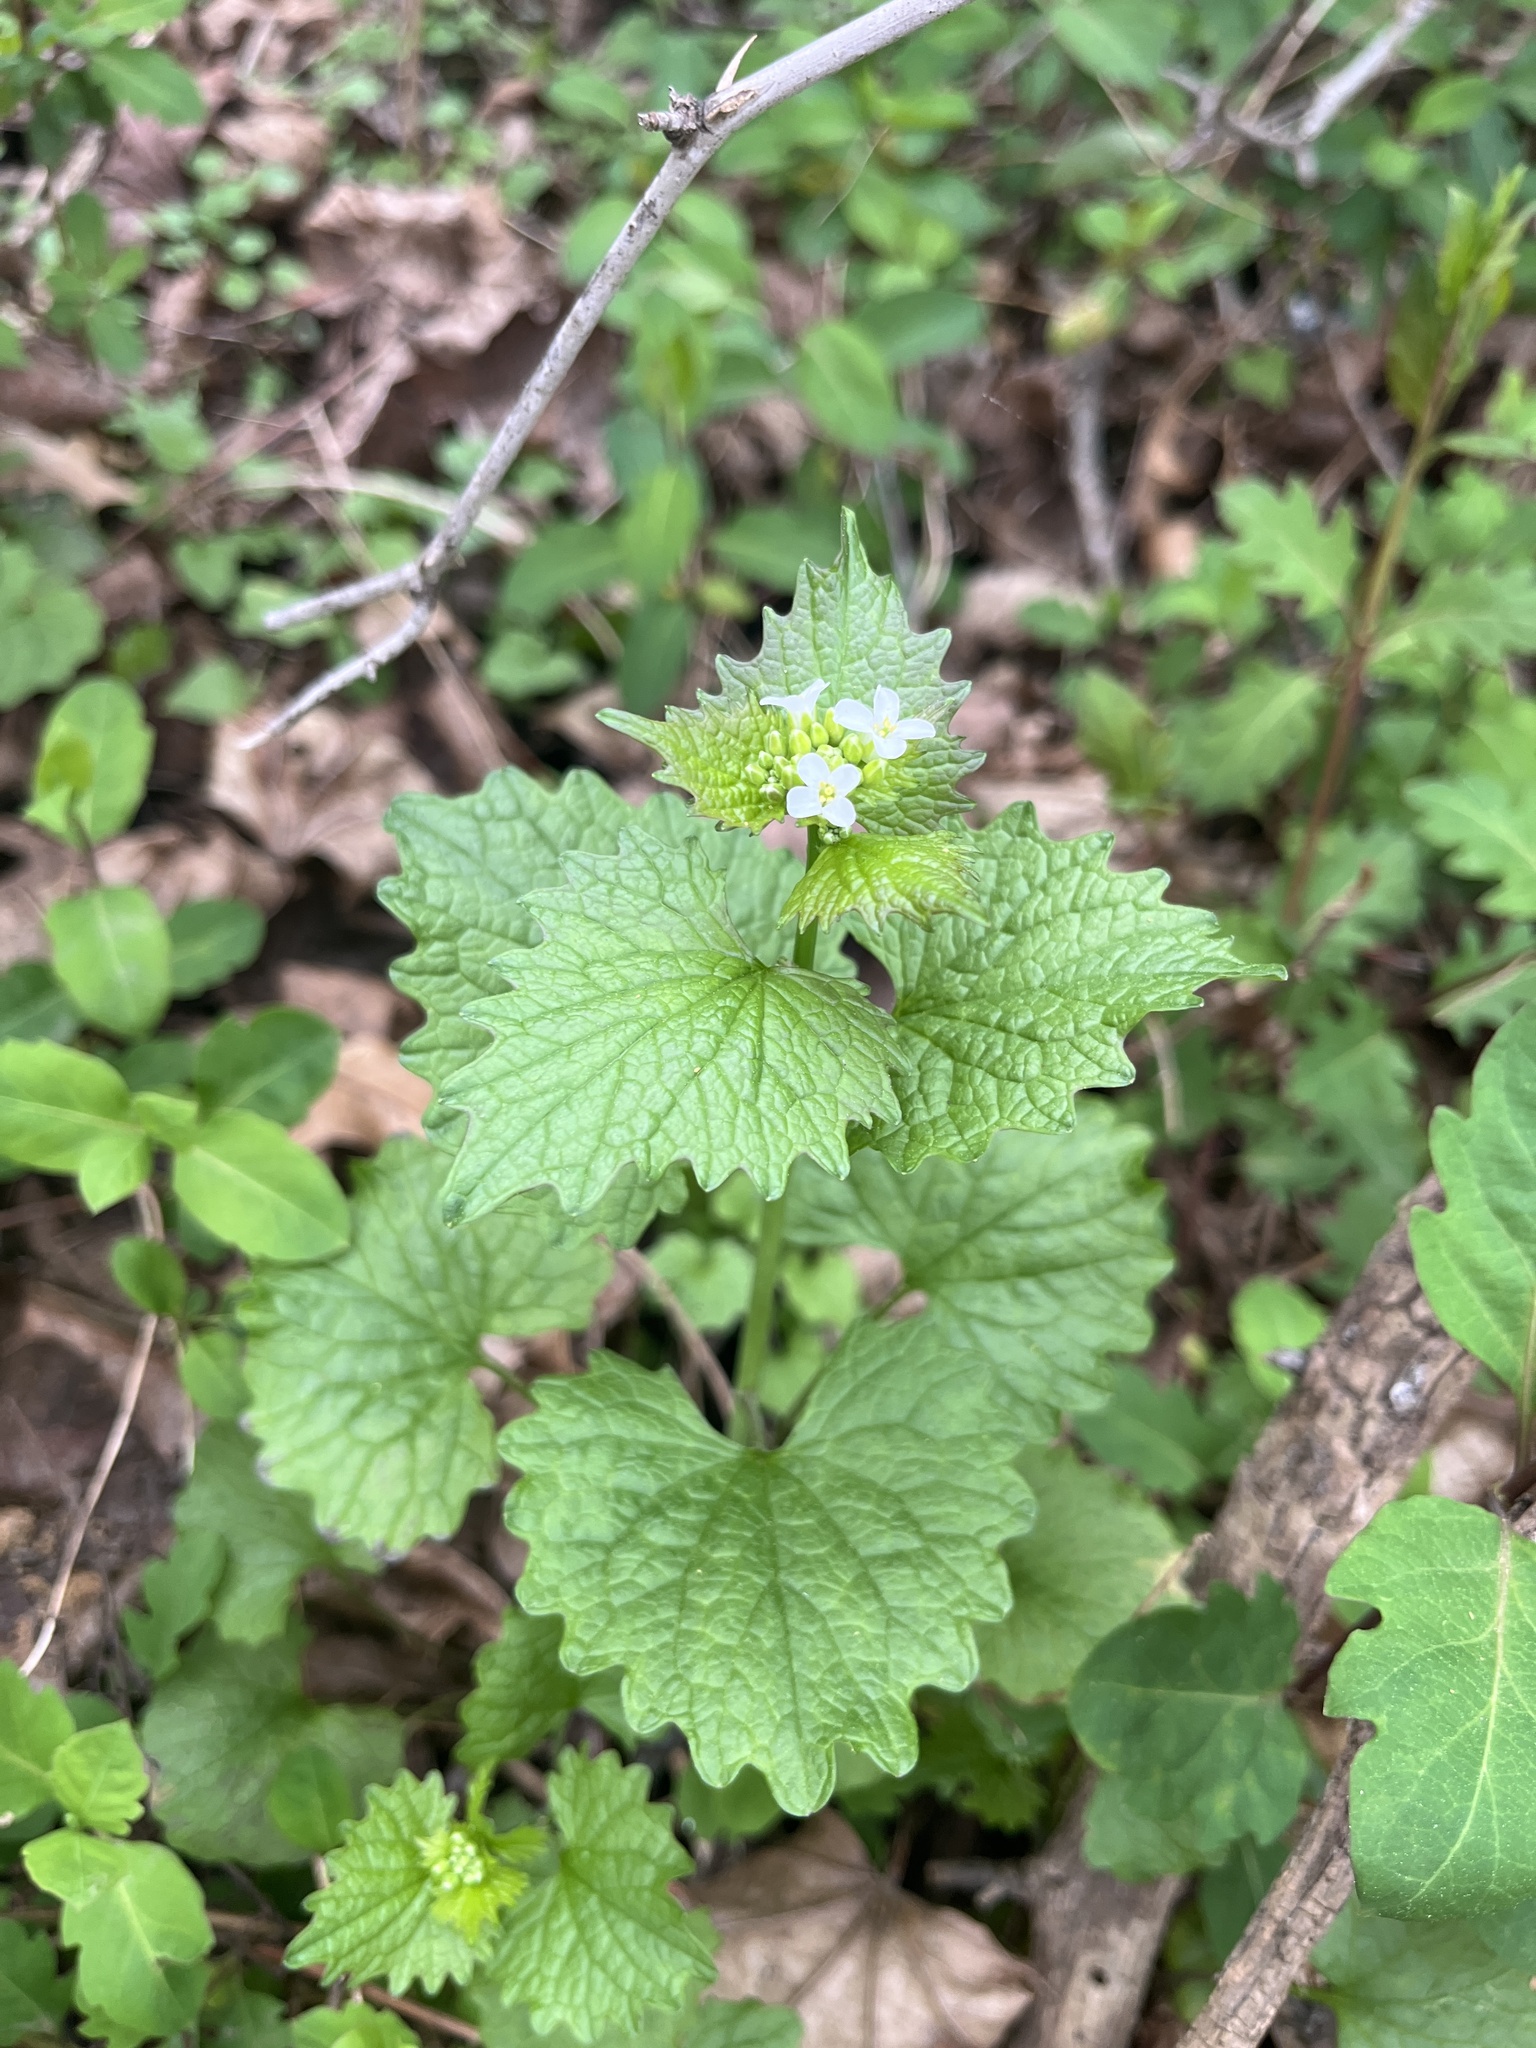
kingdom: Plantae
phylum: Tracheophyta
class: Magnoliopsida
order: Brassicales
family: Brassicaceae
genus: Alliaria
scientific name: Alliaria petiolata
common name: Garlic mustard
